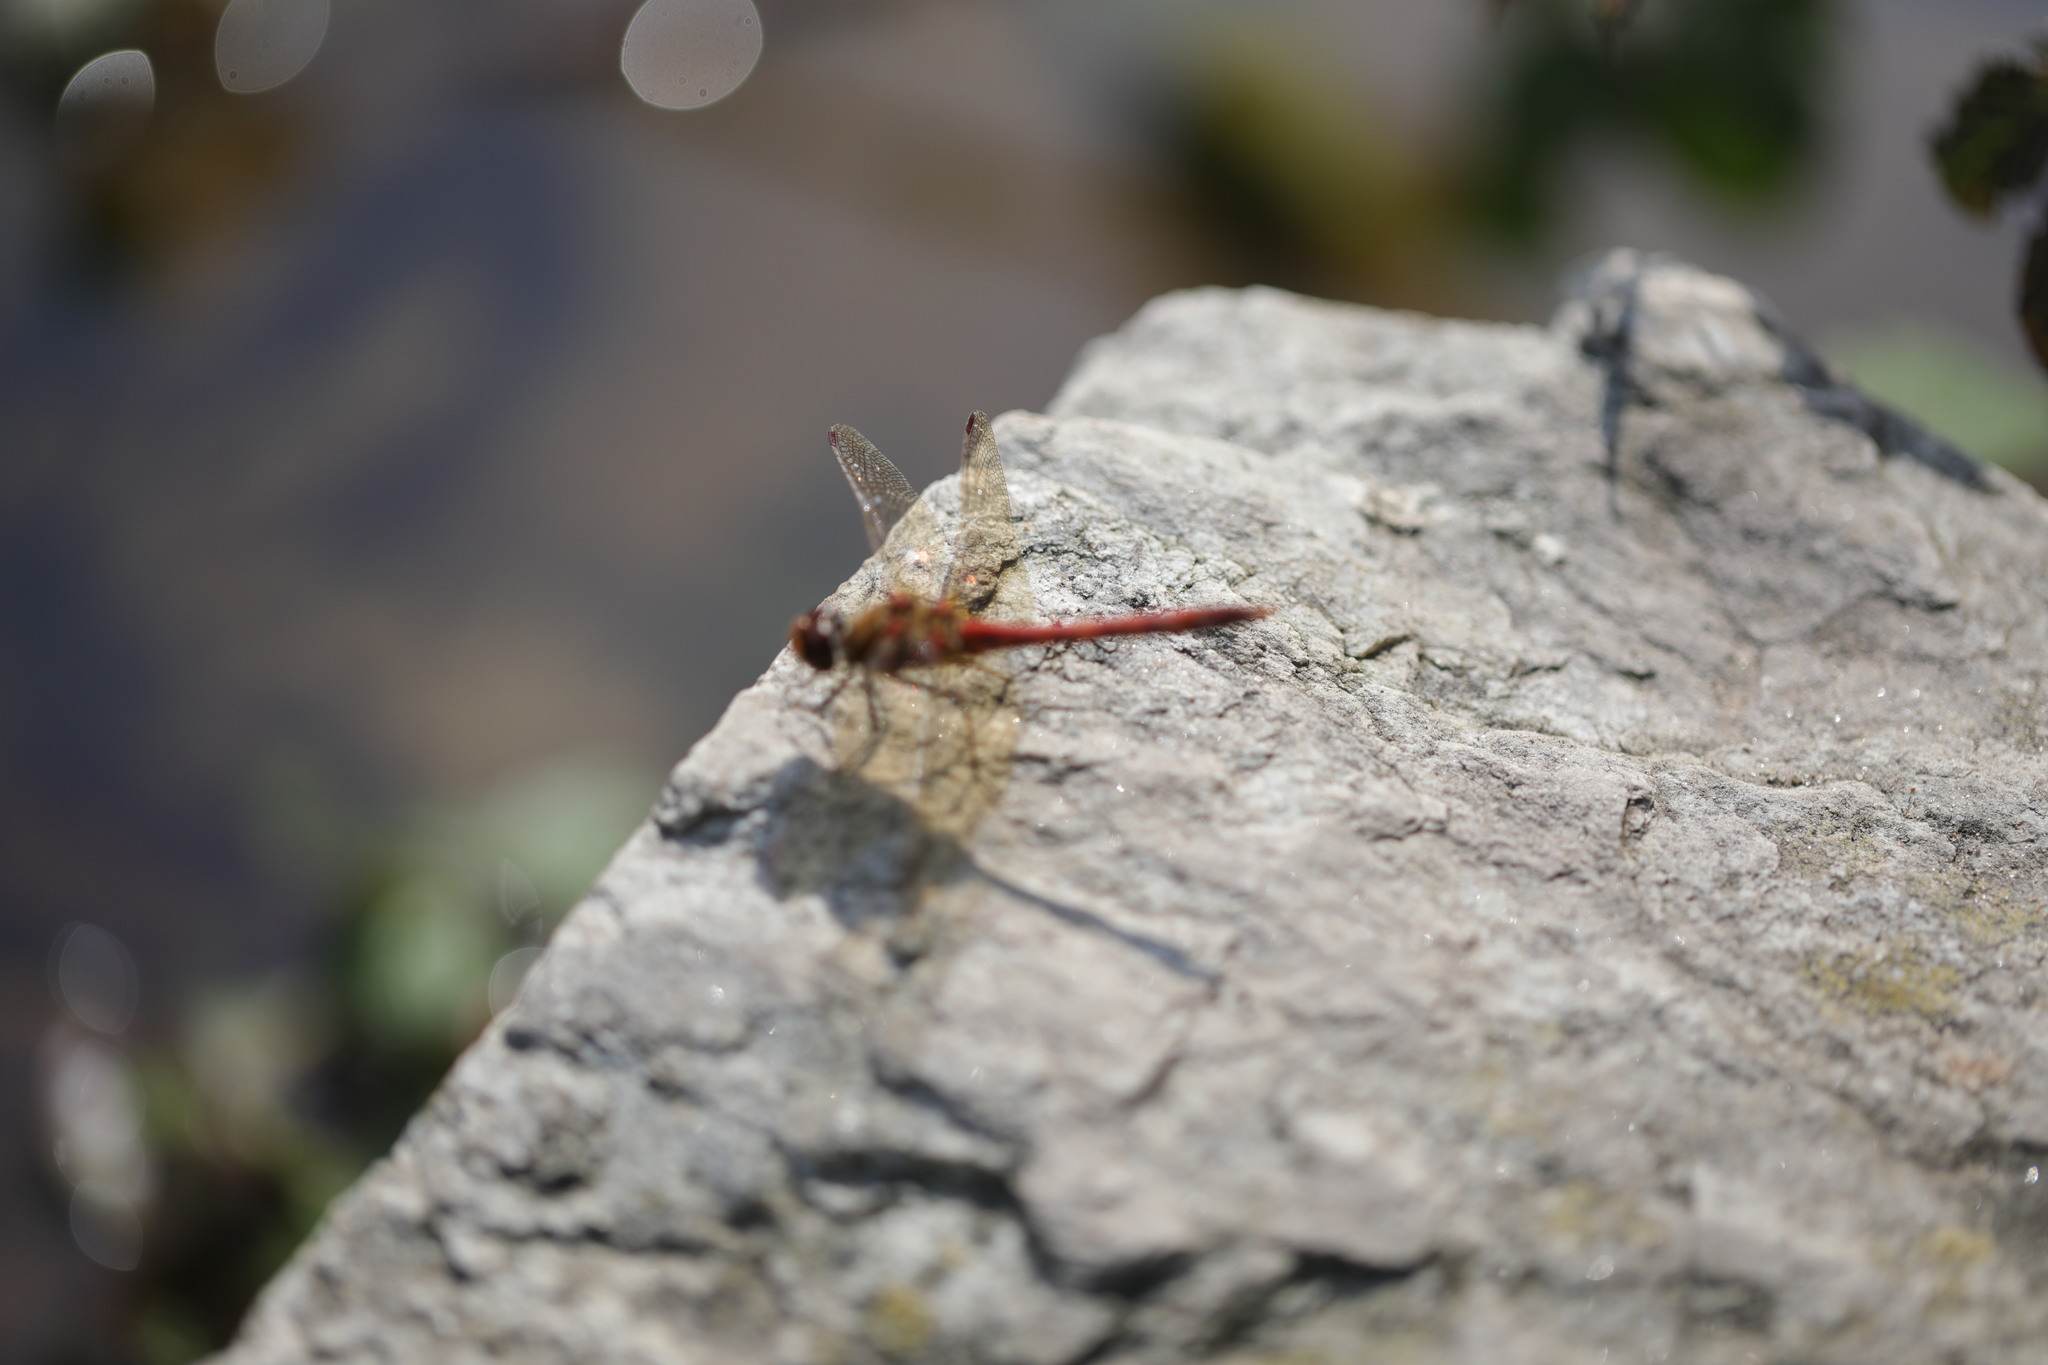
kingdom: Animalia
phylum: Arthropoda
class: Insecta
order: Odonata
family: Libellulidae
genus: Sympetrum
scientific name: Sympetrum striolatum
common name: Common darter
